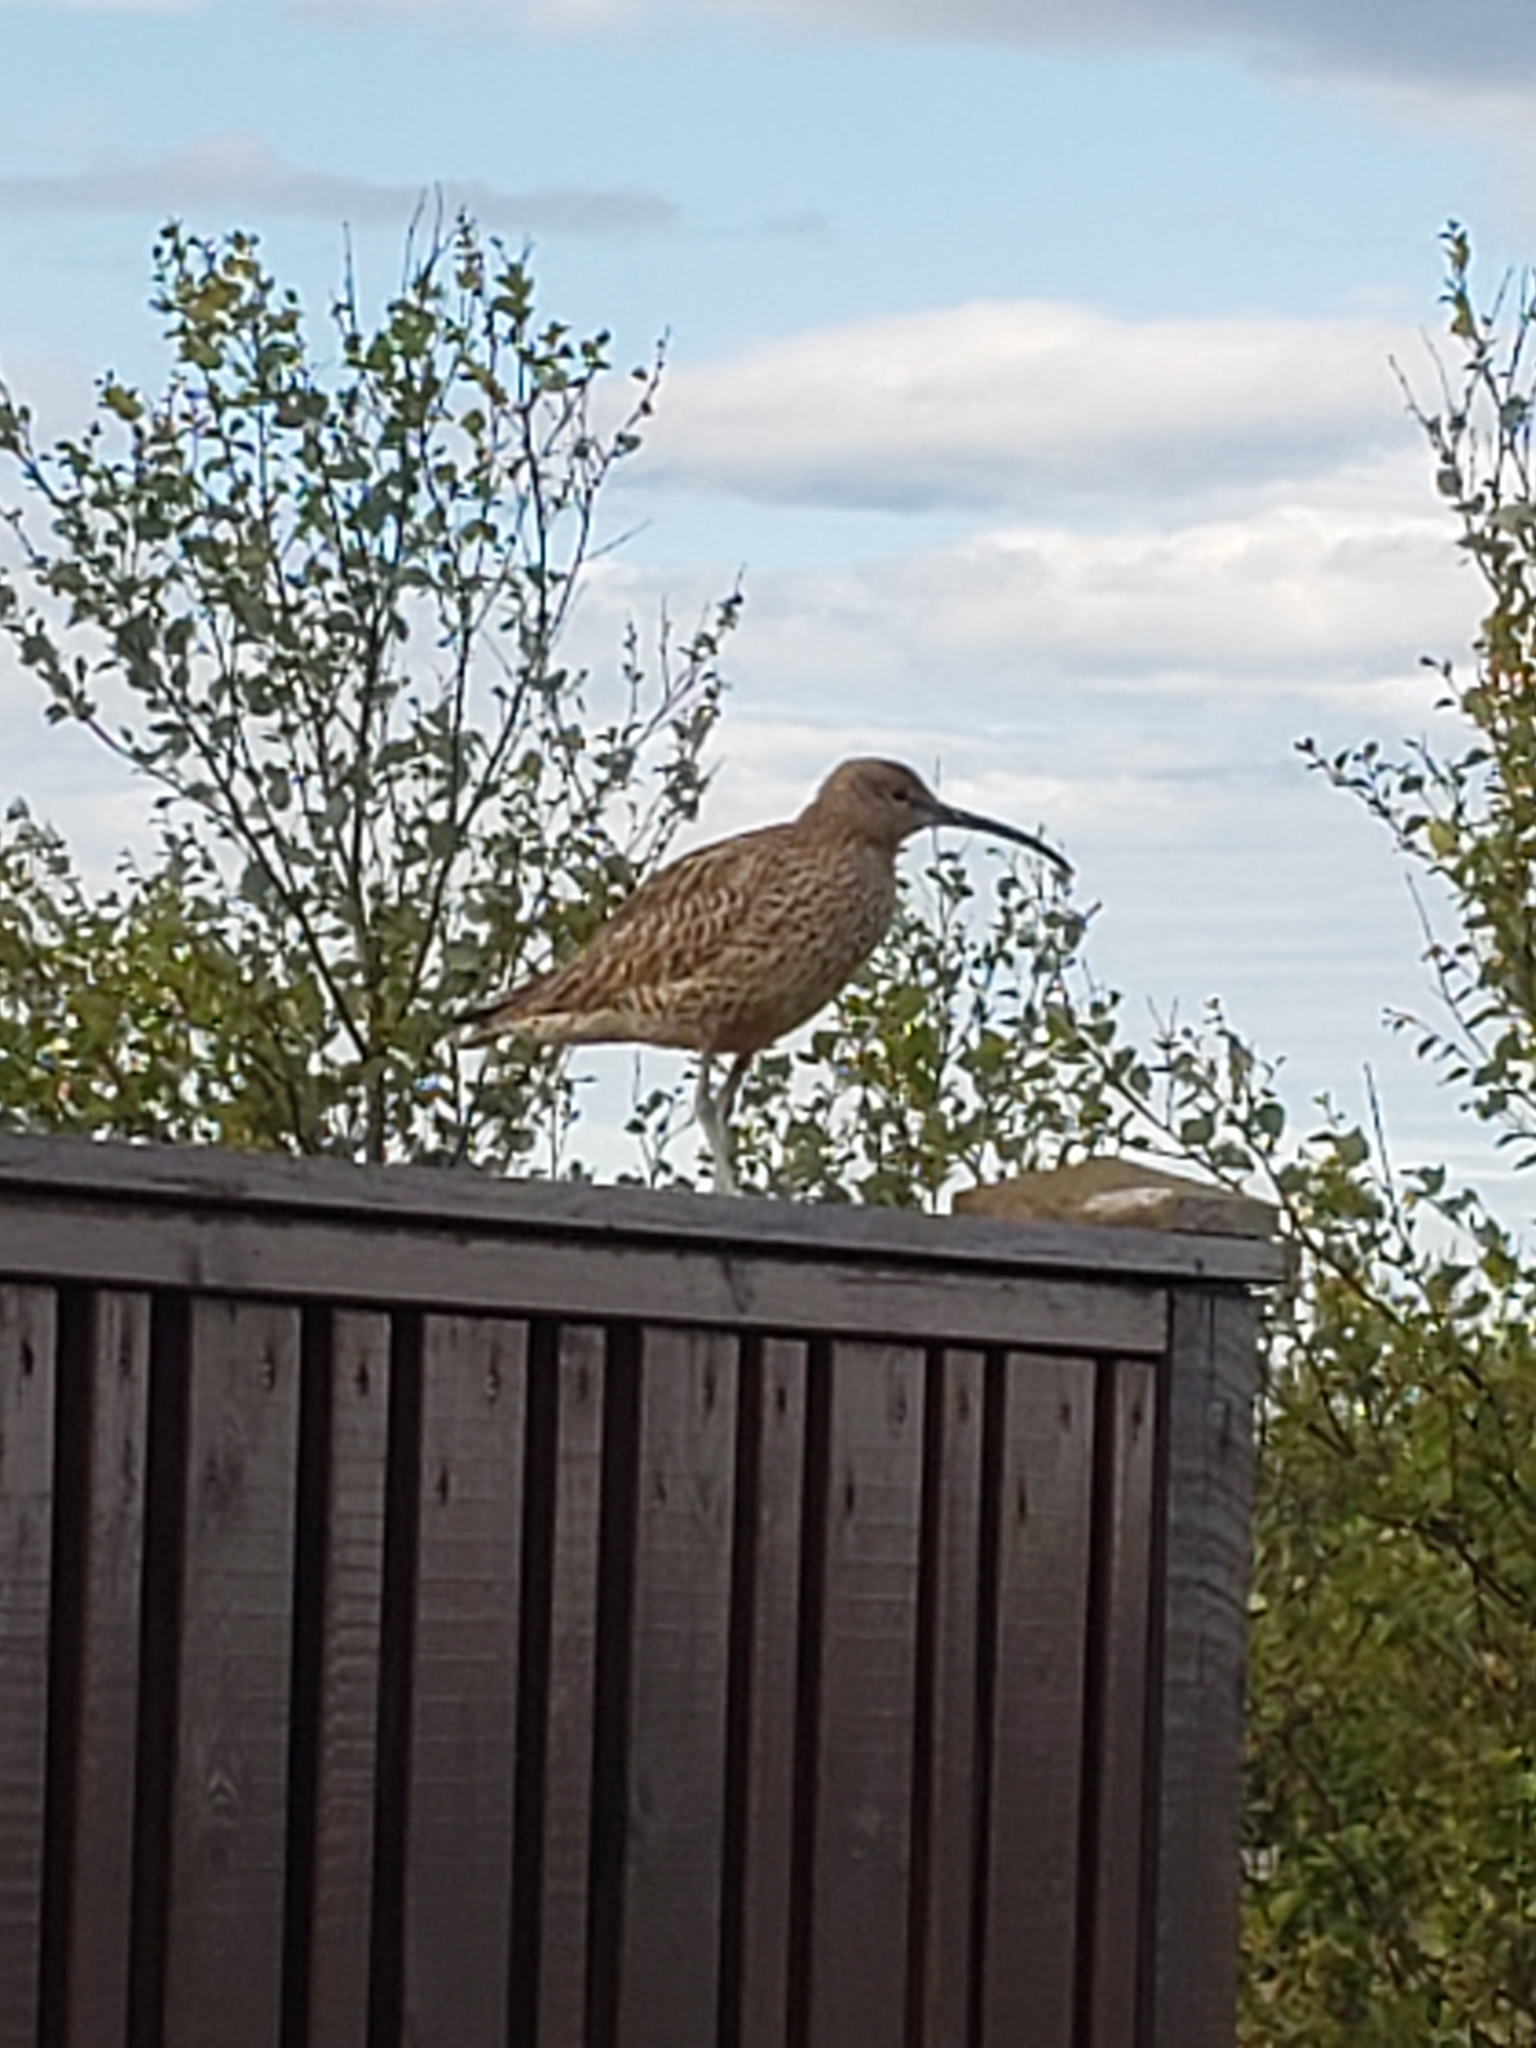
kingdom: Animalia
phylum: Chordata
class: Aves
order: Charadriiformes
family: Scolopacidae
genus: Numenius
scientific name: Numenius phaeopus
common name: Whimbrel
